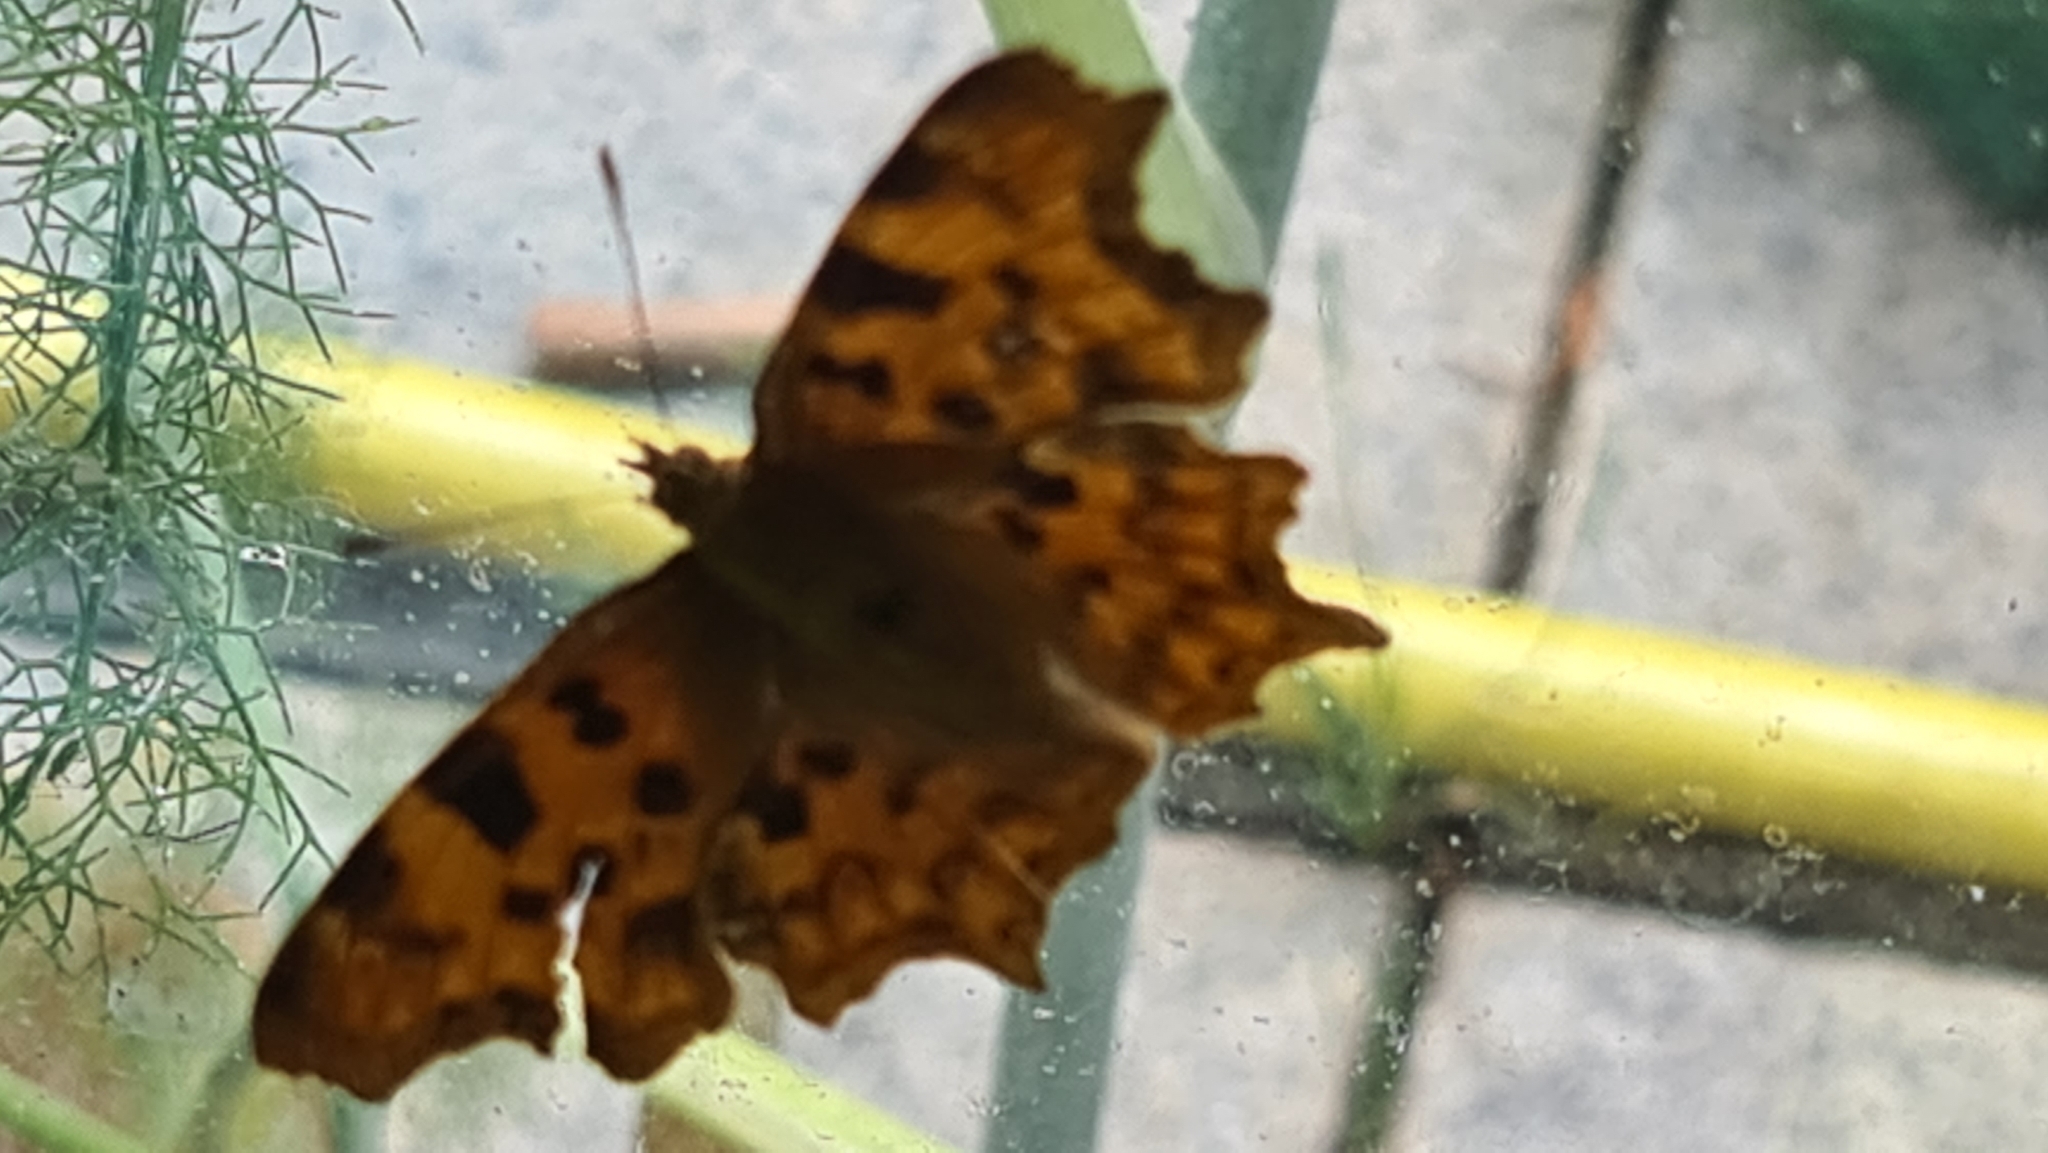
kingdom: Animalia
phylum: Arthropoda
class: Insecta
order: Lepidoptera
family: Nymphalidae
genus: Polygonia
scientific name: Polygonia c-album
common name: Comma
